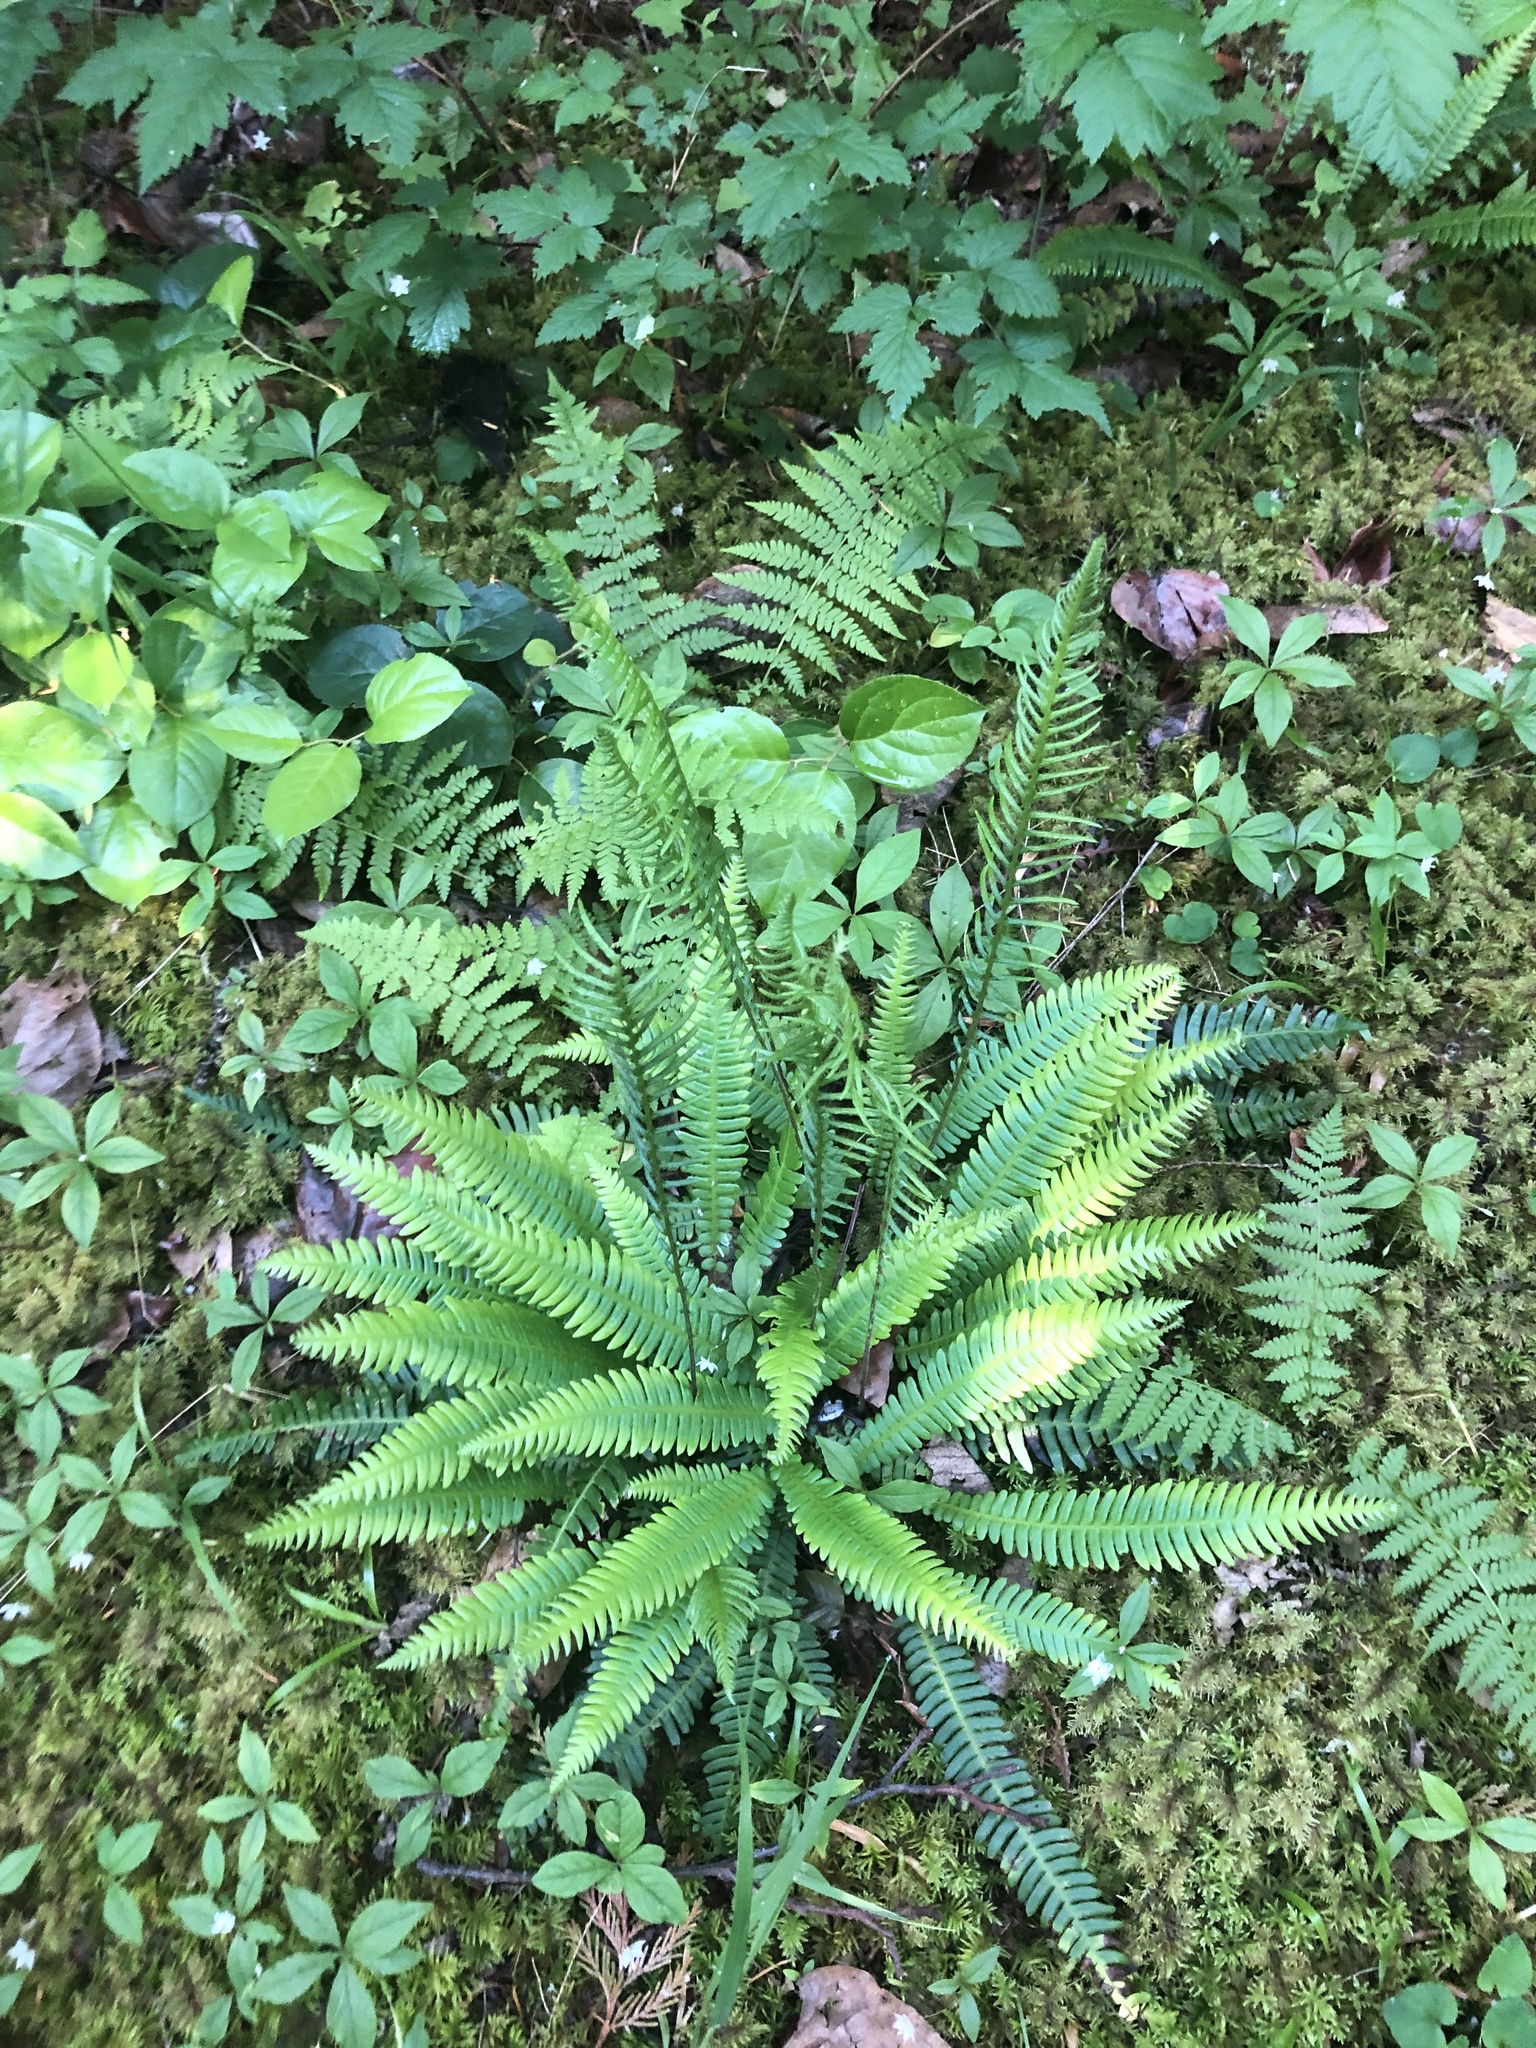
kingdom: Plantae
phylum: Tracheophyta
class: Polypodiopsida
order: Polypodiales
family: Blechnaceae
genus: Struthiopteris
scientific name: Struthiopteris spicant
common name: Deer fern
